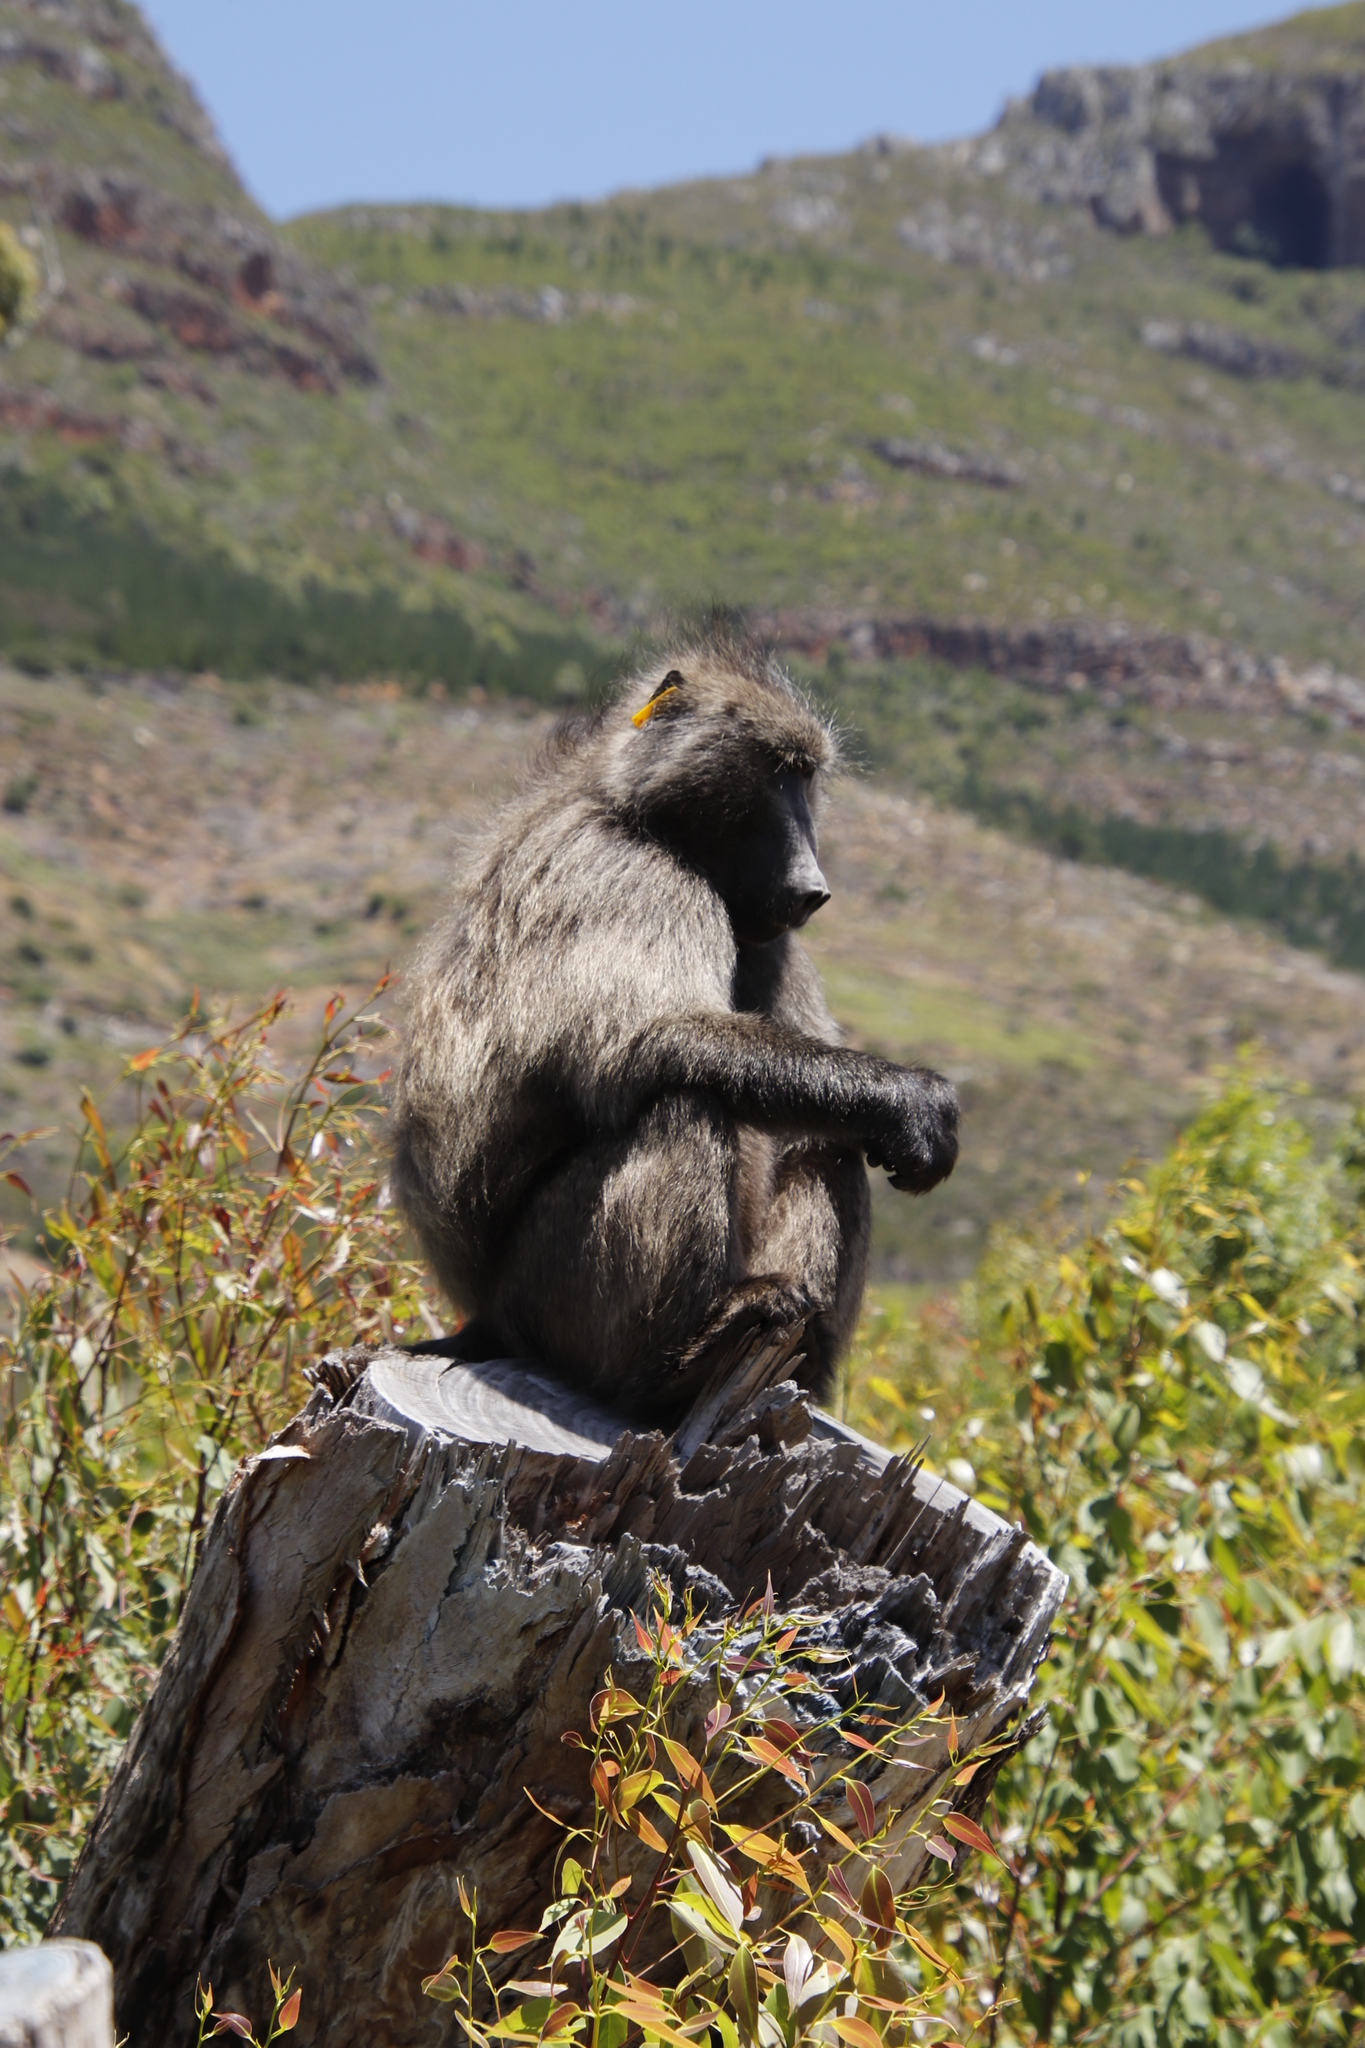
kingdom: Animalia
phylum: Chordata
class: Mammalia
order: Primates
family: Cercopithecidae
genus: Papio
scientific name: Papio ursinus
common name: Chacma baboon
